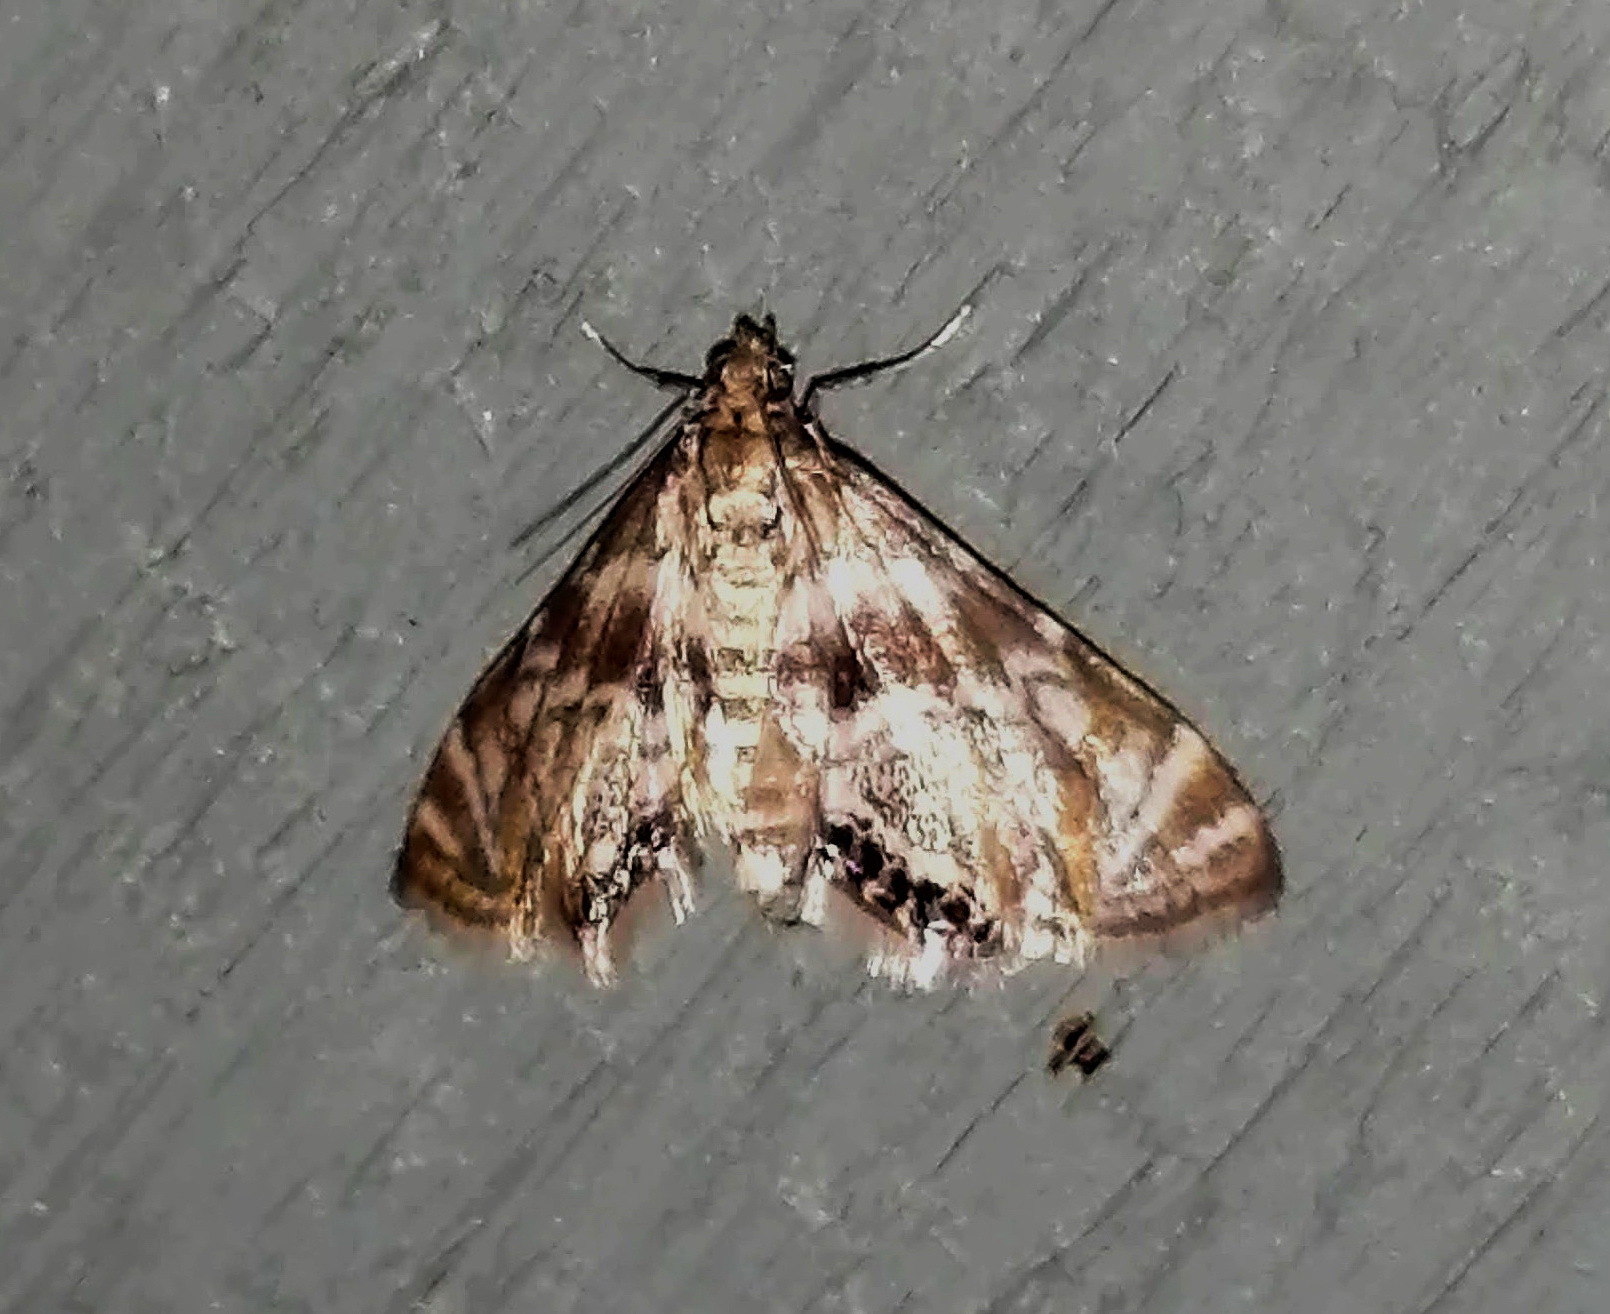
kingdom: Animalia
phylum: Arthropoda
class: Insecta
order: Lepidoptera
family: Crambidae
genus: Petrophila
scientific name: Petrophila canadensis
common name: Canadian petrophila
